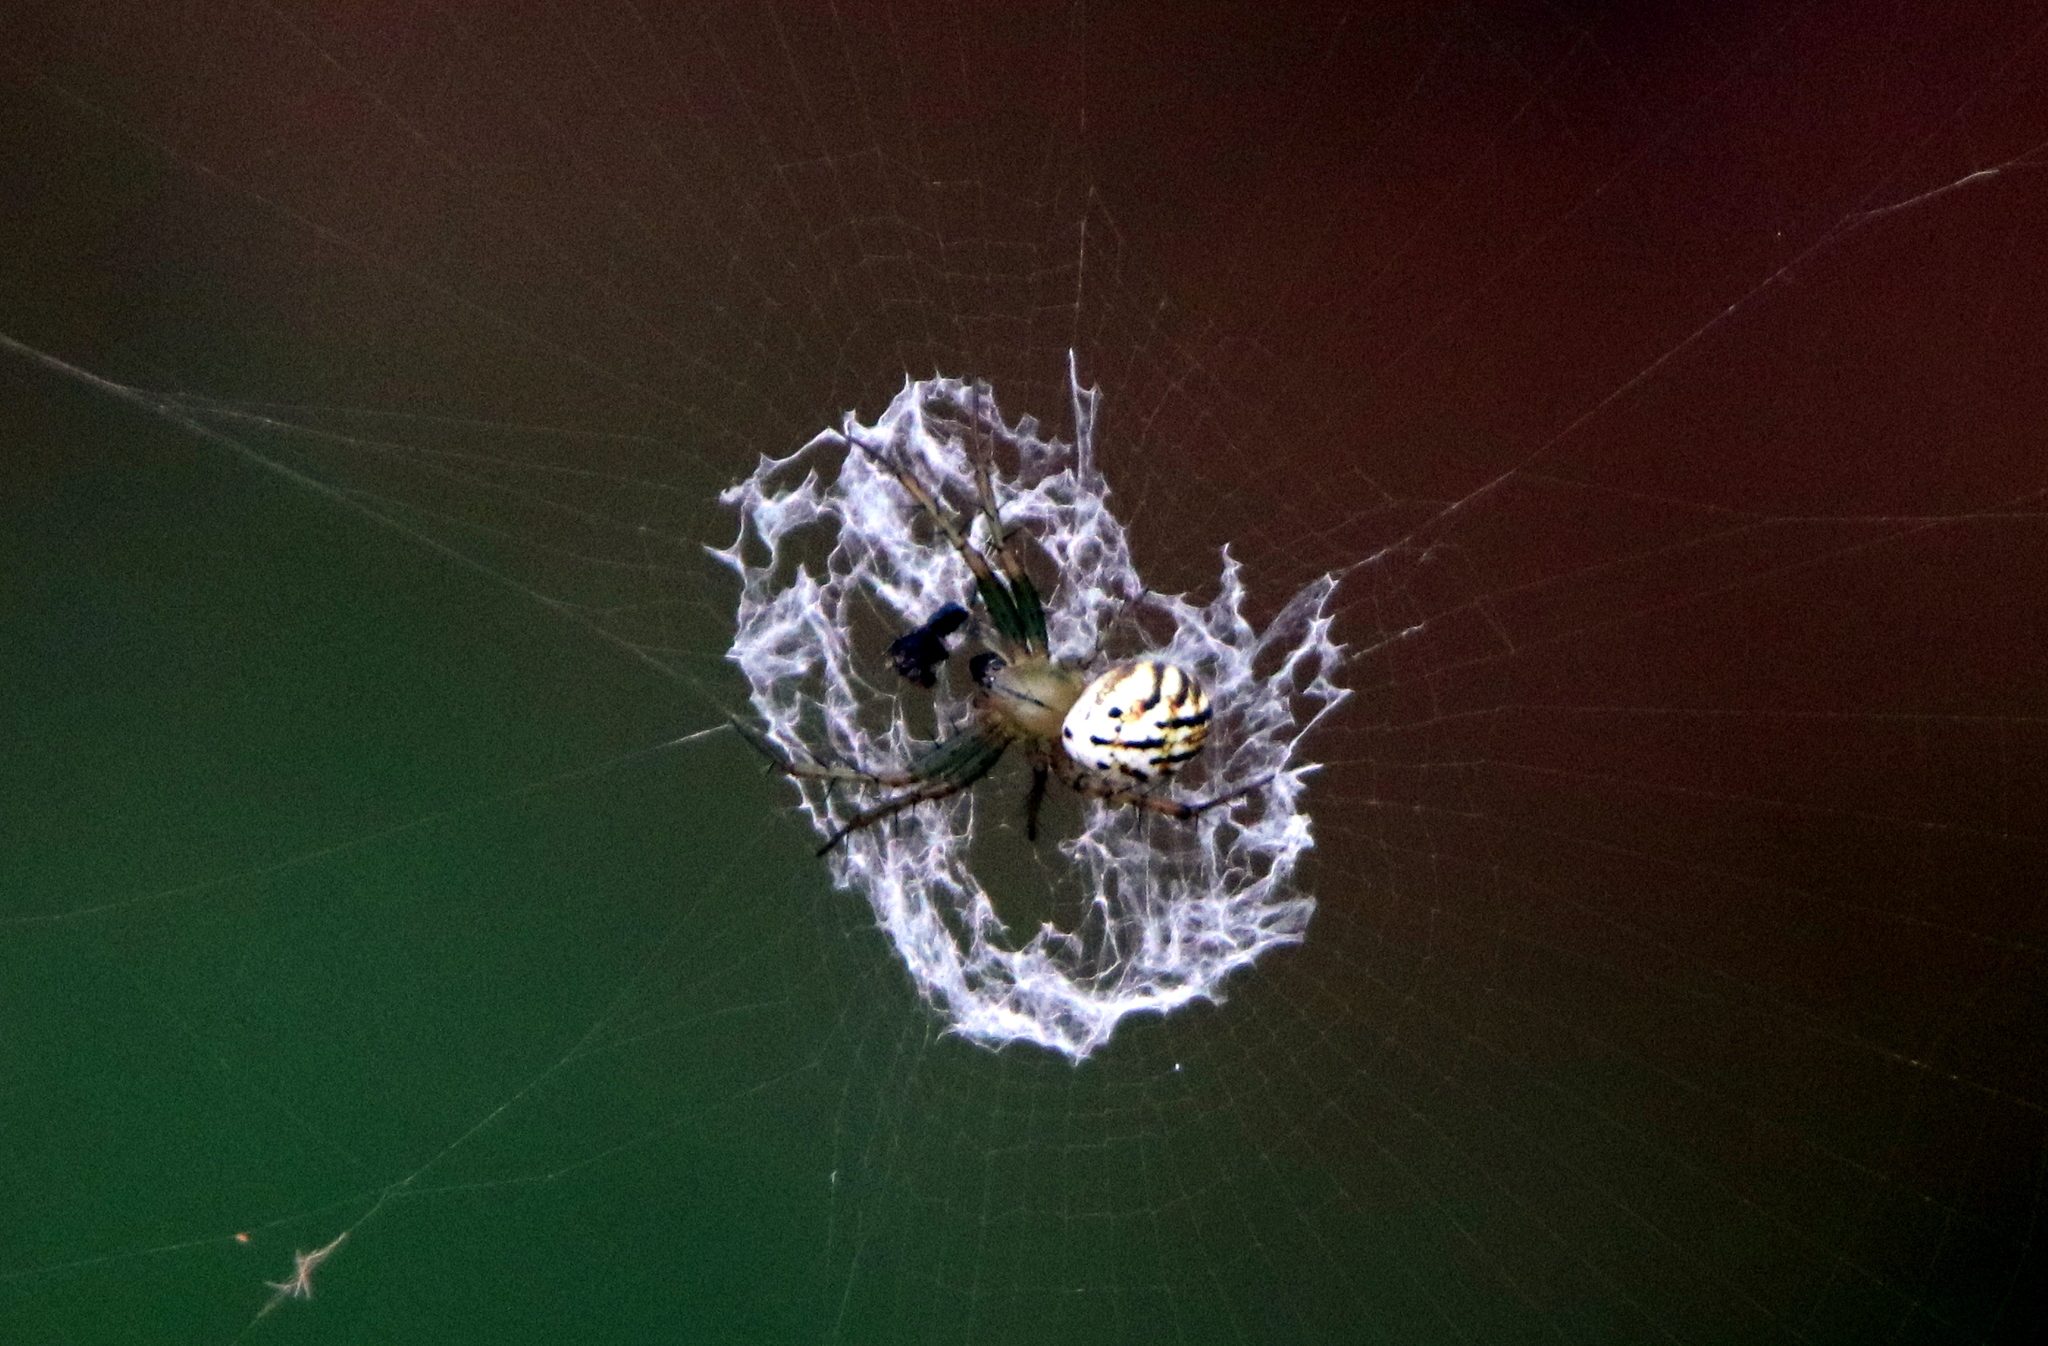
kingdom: Animalia
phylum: Arthropoda
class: Arachnida
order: Araneae
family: Araneidae
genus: Mangora
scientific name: Mangora gibberosa
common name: Lined orbweaver
